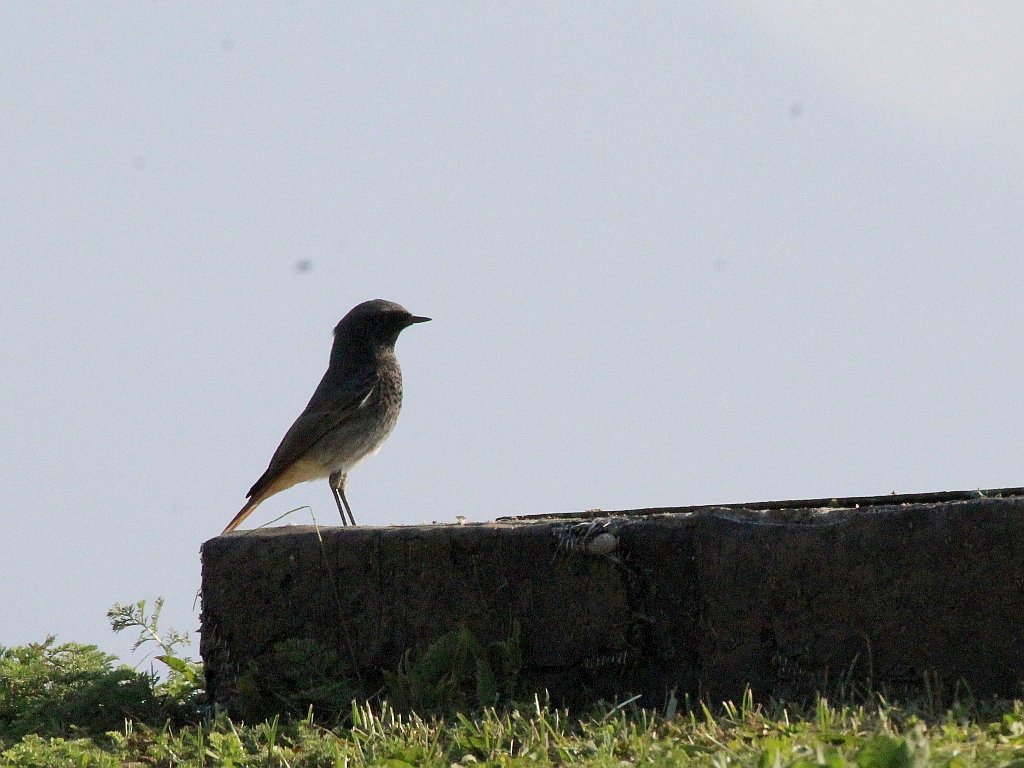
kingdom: Animalia
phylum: Chordata
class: Aves
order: Passeriformes
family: Muscicapidae
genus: Phoenicurus
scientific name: Phoenicurus ochruros
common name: Black redstart
